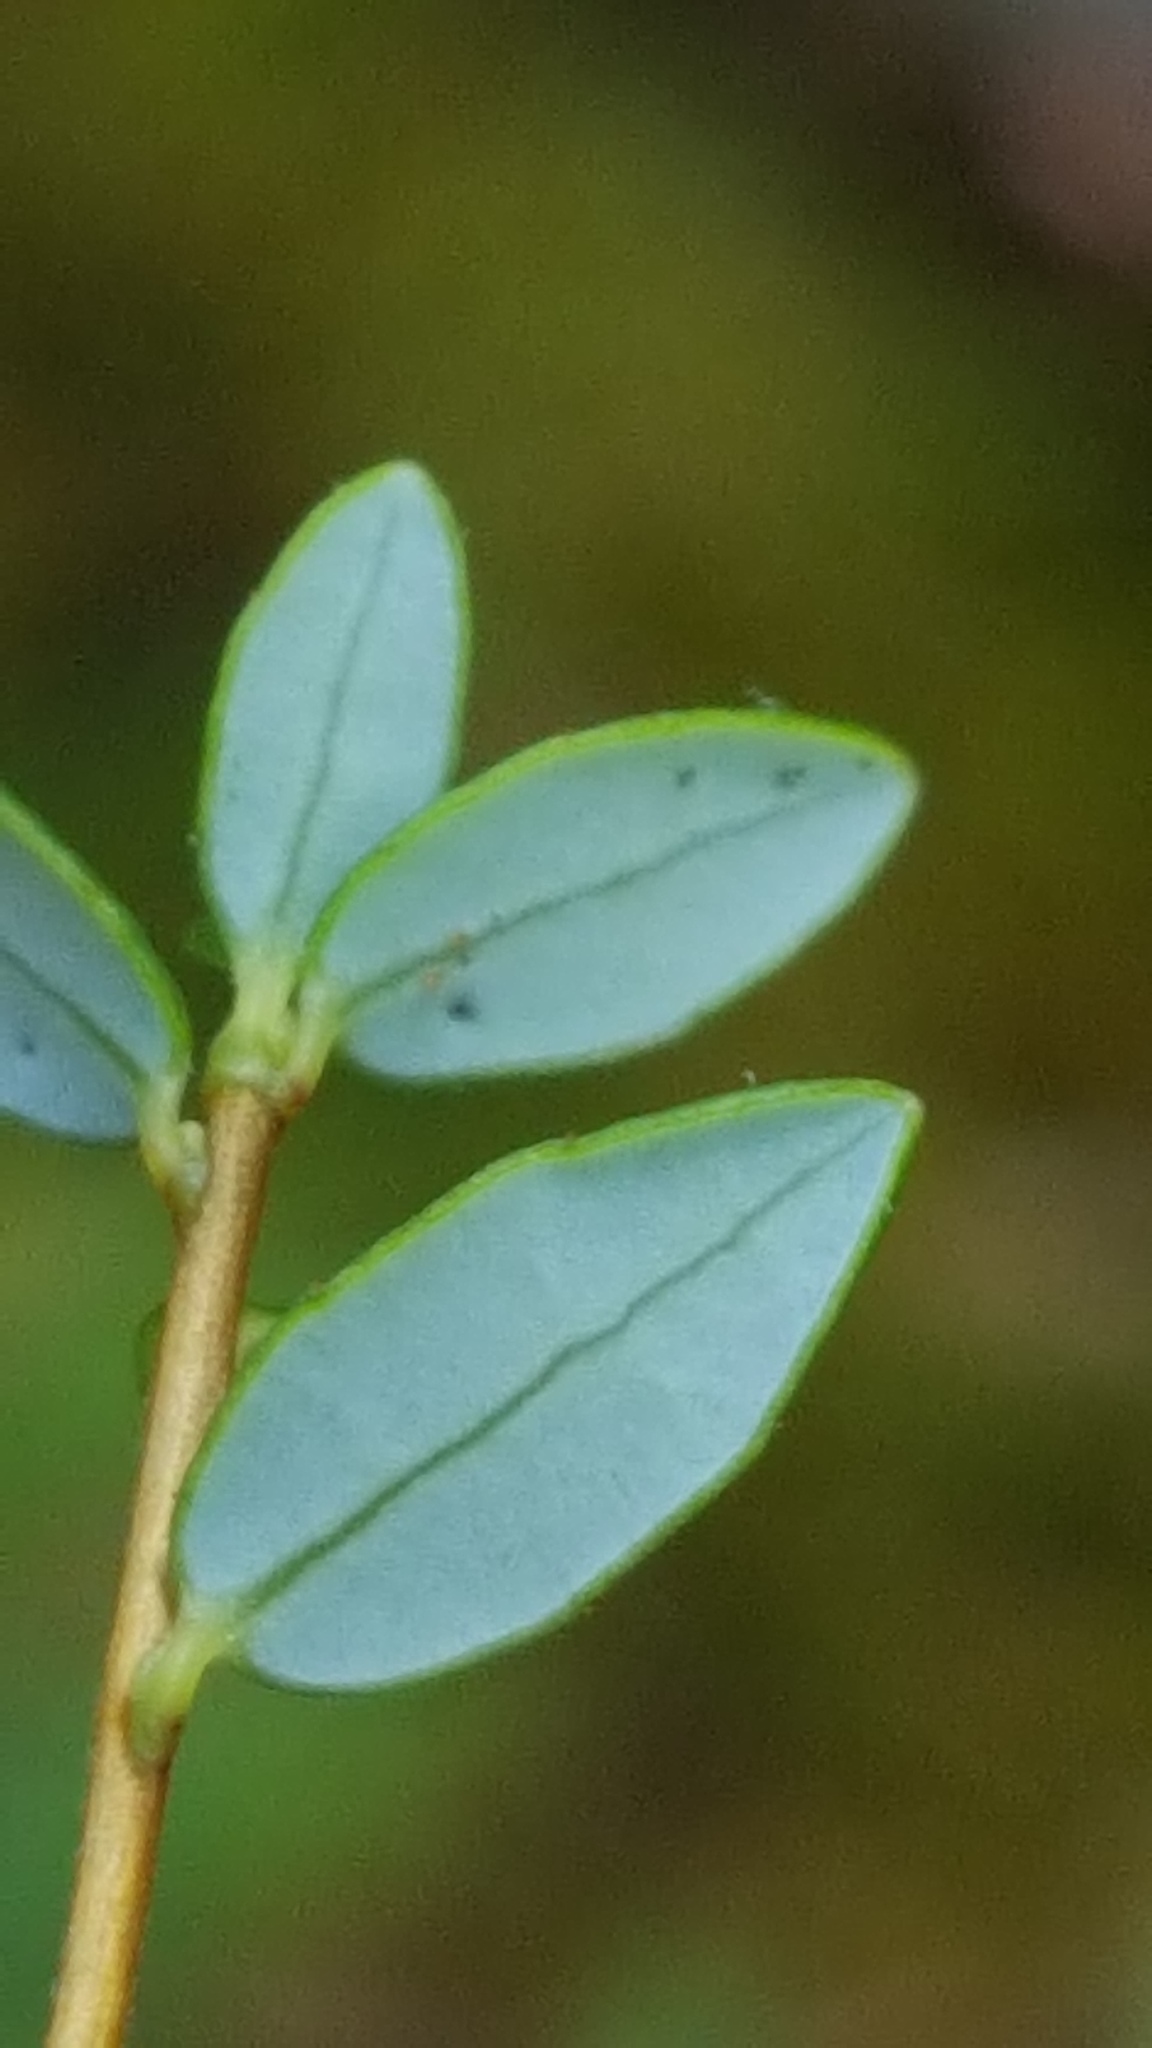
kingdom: Plantae
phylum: Tracheophyta
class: Magnoliopsida
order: Ericales
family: Ericaceae
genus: Vaccinium
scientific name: Vaccinium oxycoccos
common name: Cranberry
